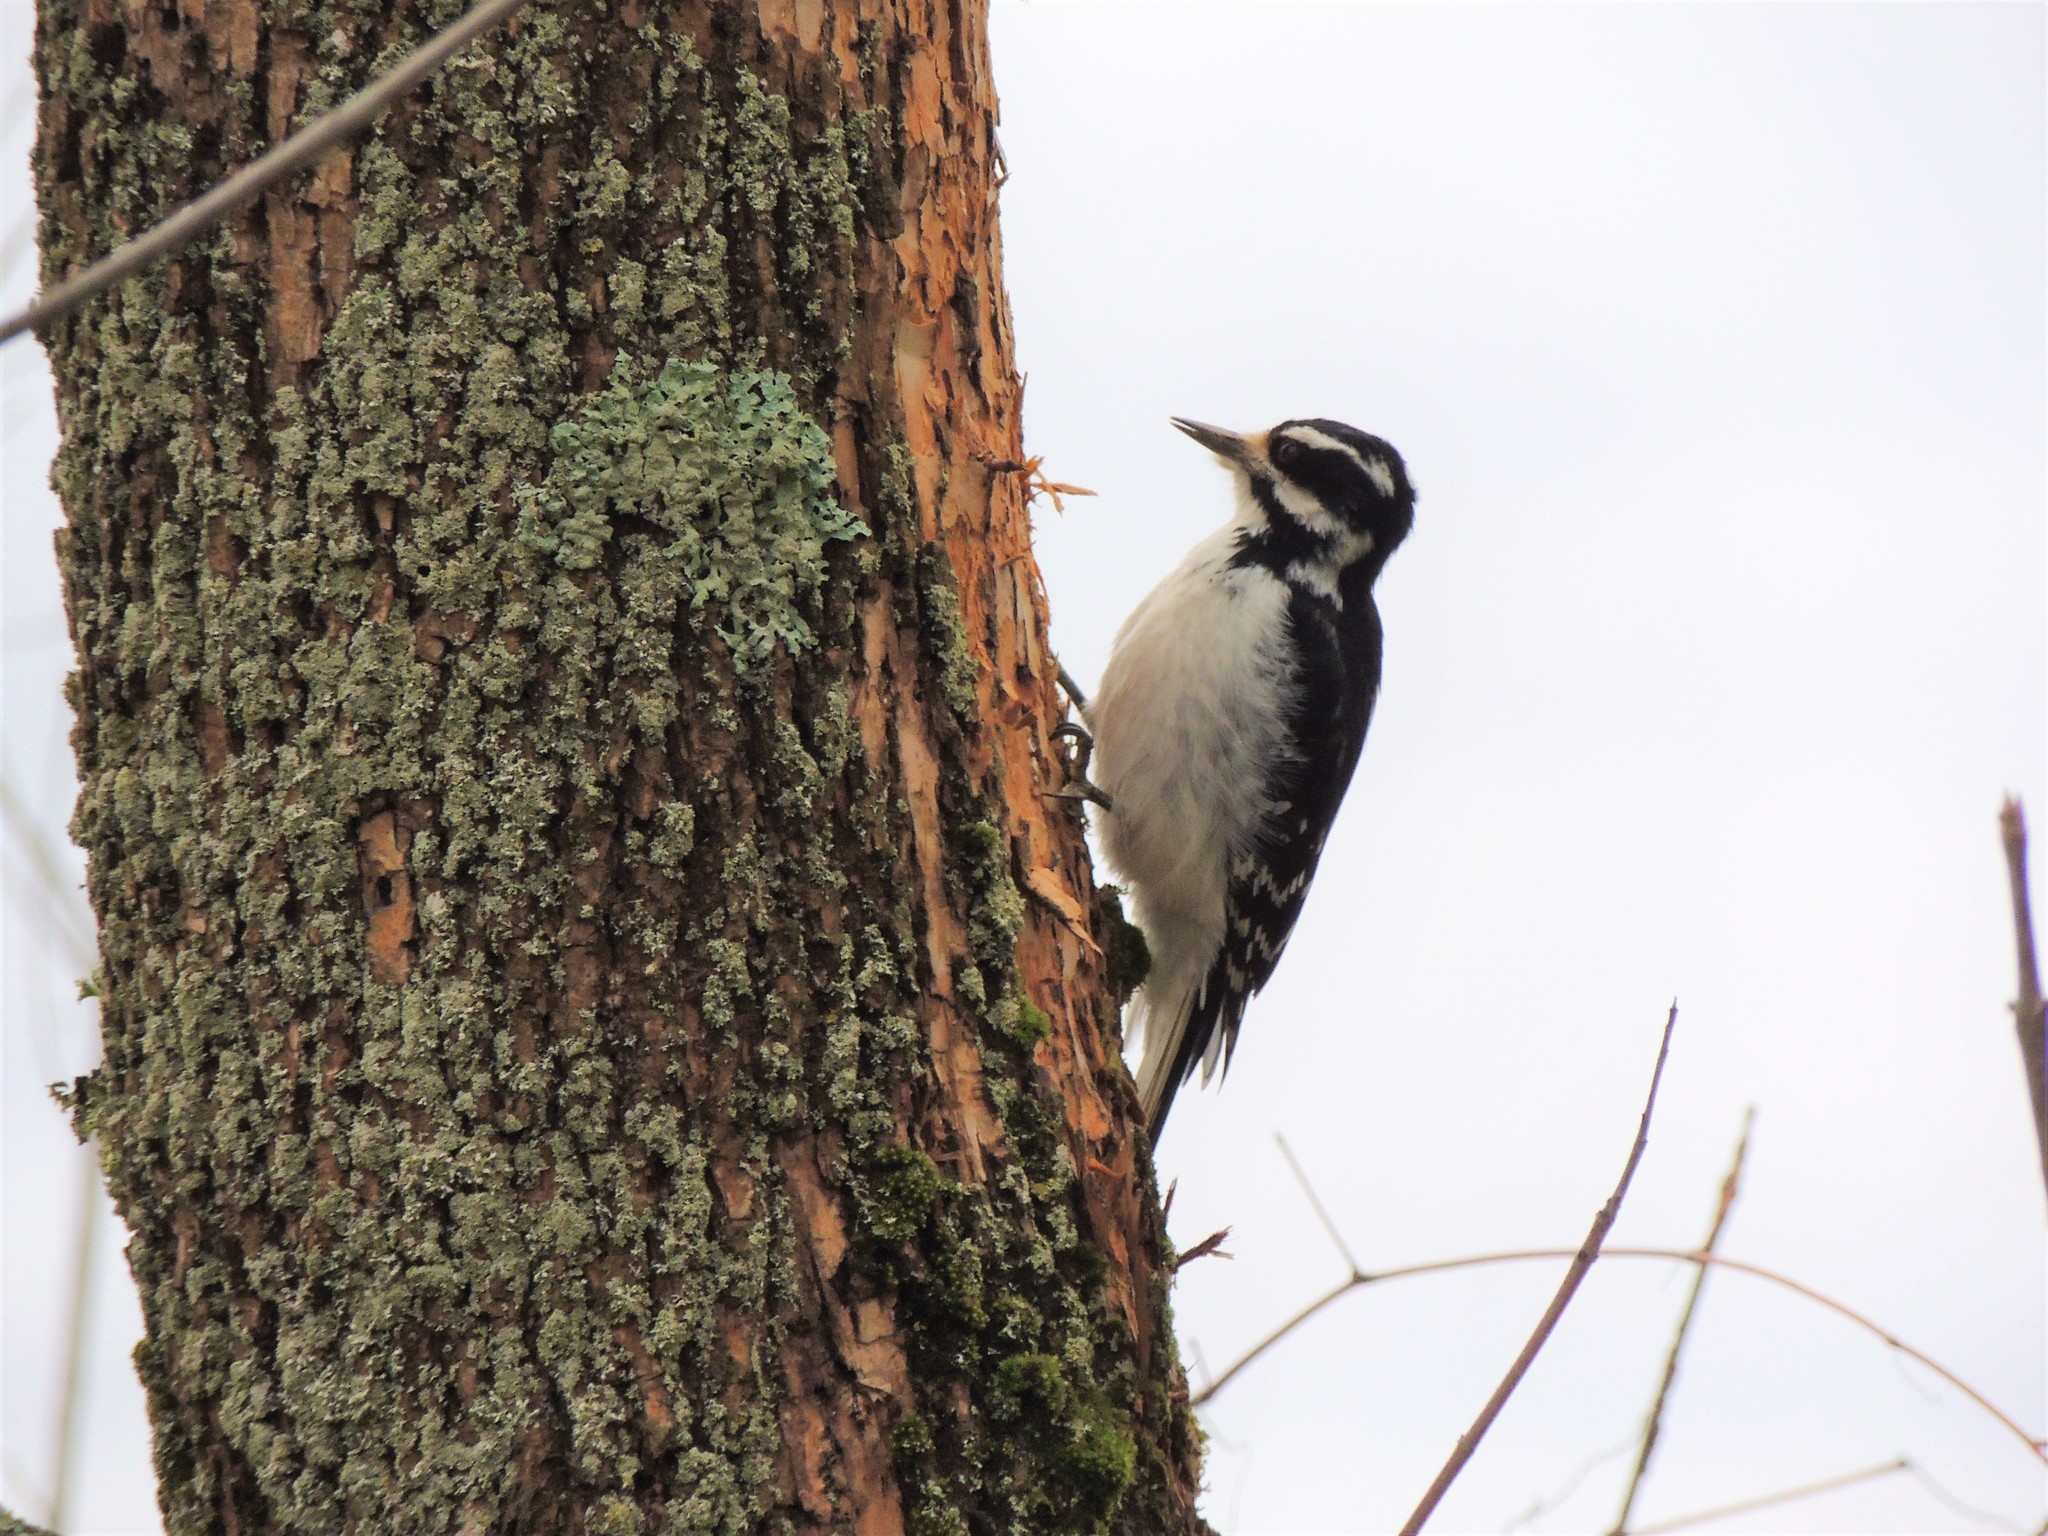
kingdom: Animalia
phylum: Chordata
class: Aves
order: Piciformes
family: Picidae
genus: Leuconotopicus
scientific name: Leuconotopicus villosus
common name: Hairy woodpecker
